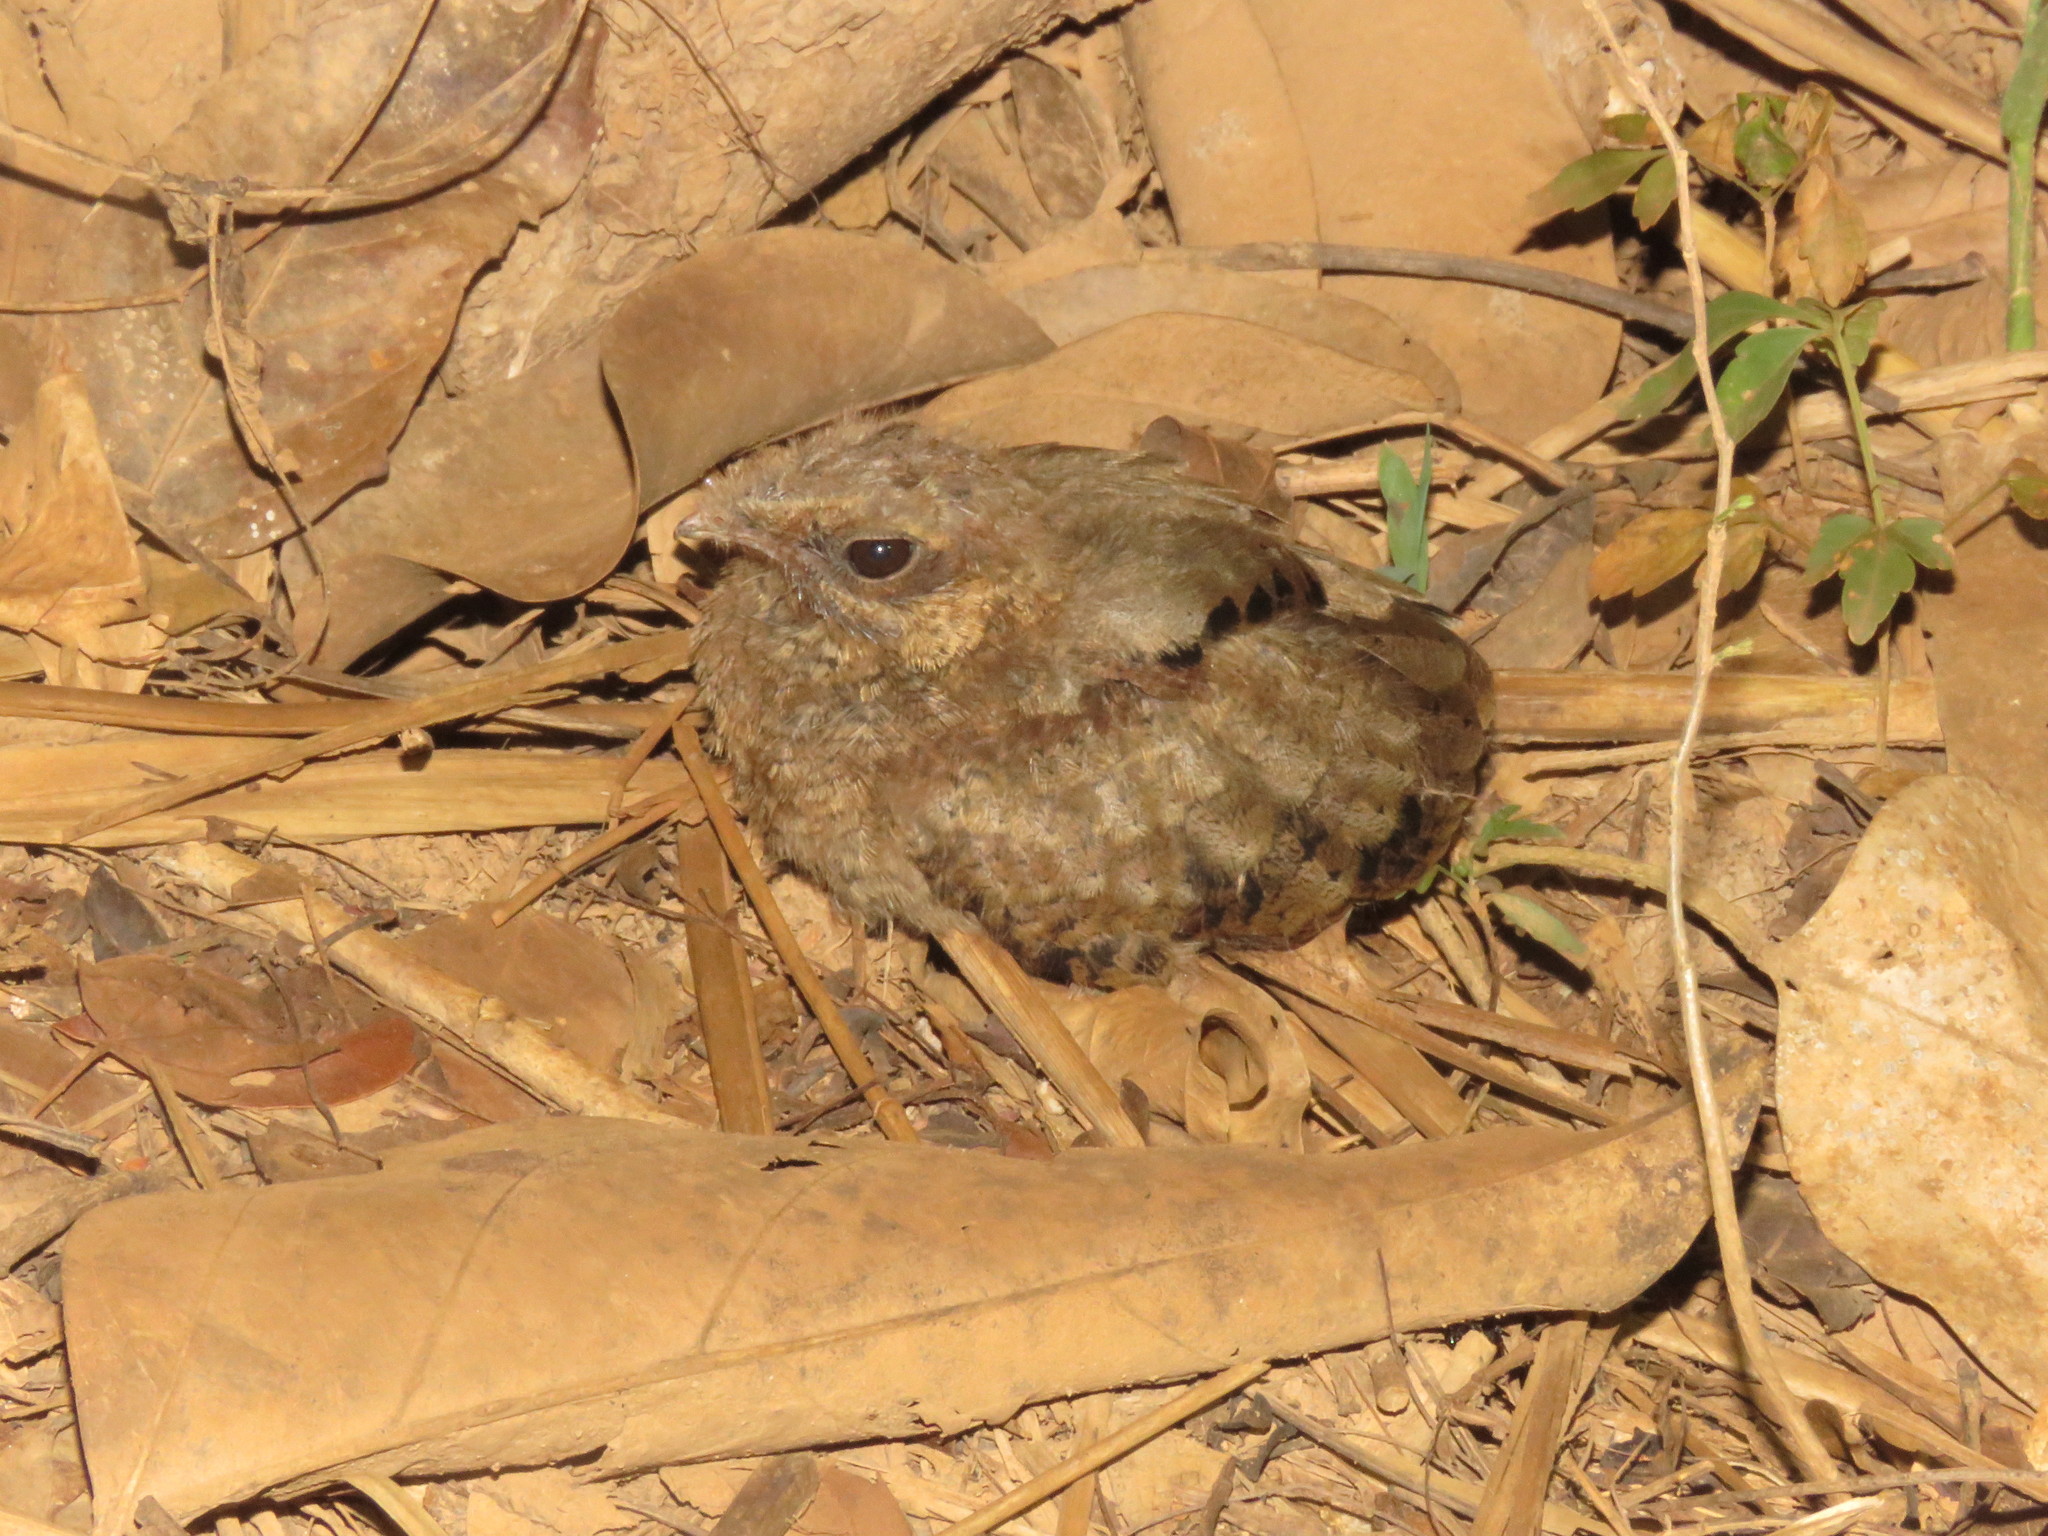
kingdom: Animalia
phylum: Chordata
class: Aves
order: Caprimulgiformes
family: Caprimulgidae
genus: Nyctidromus
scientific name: Nyctidromus albicollis
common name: Pauraque
